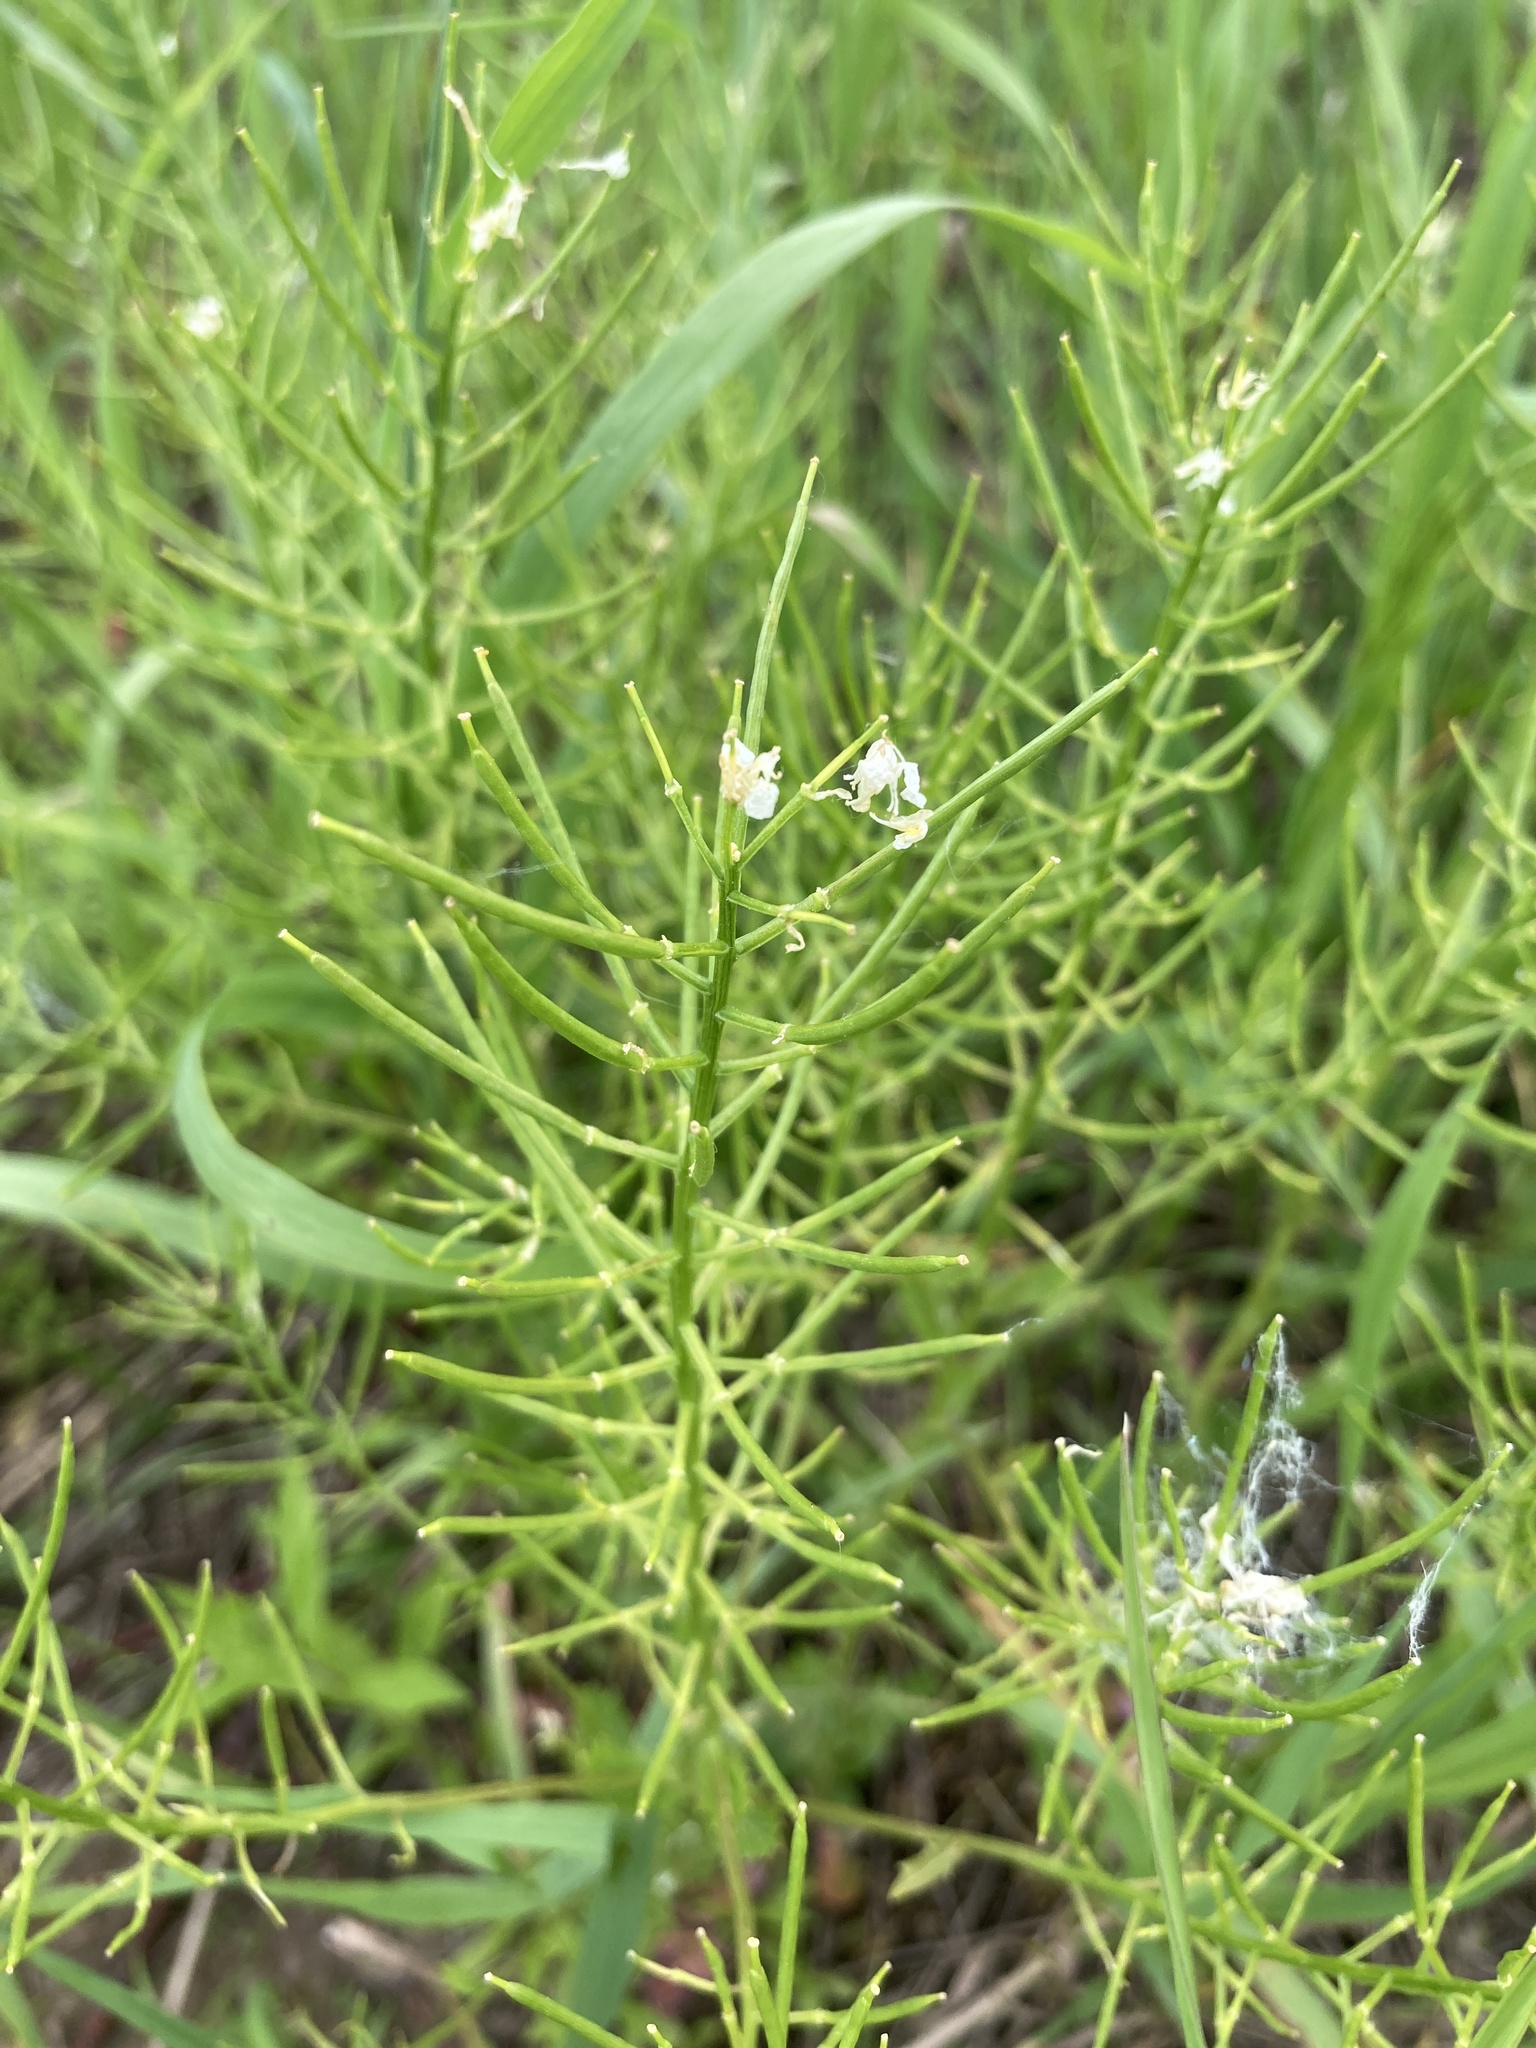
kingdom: Plantae
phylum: Tracheophyta
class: Magnoliopsida
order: Brassicales
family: Brassicaceae
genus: Barbarea
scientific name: Barbarea vulgaris
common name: Cressy-greens
